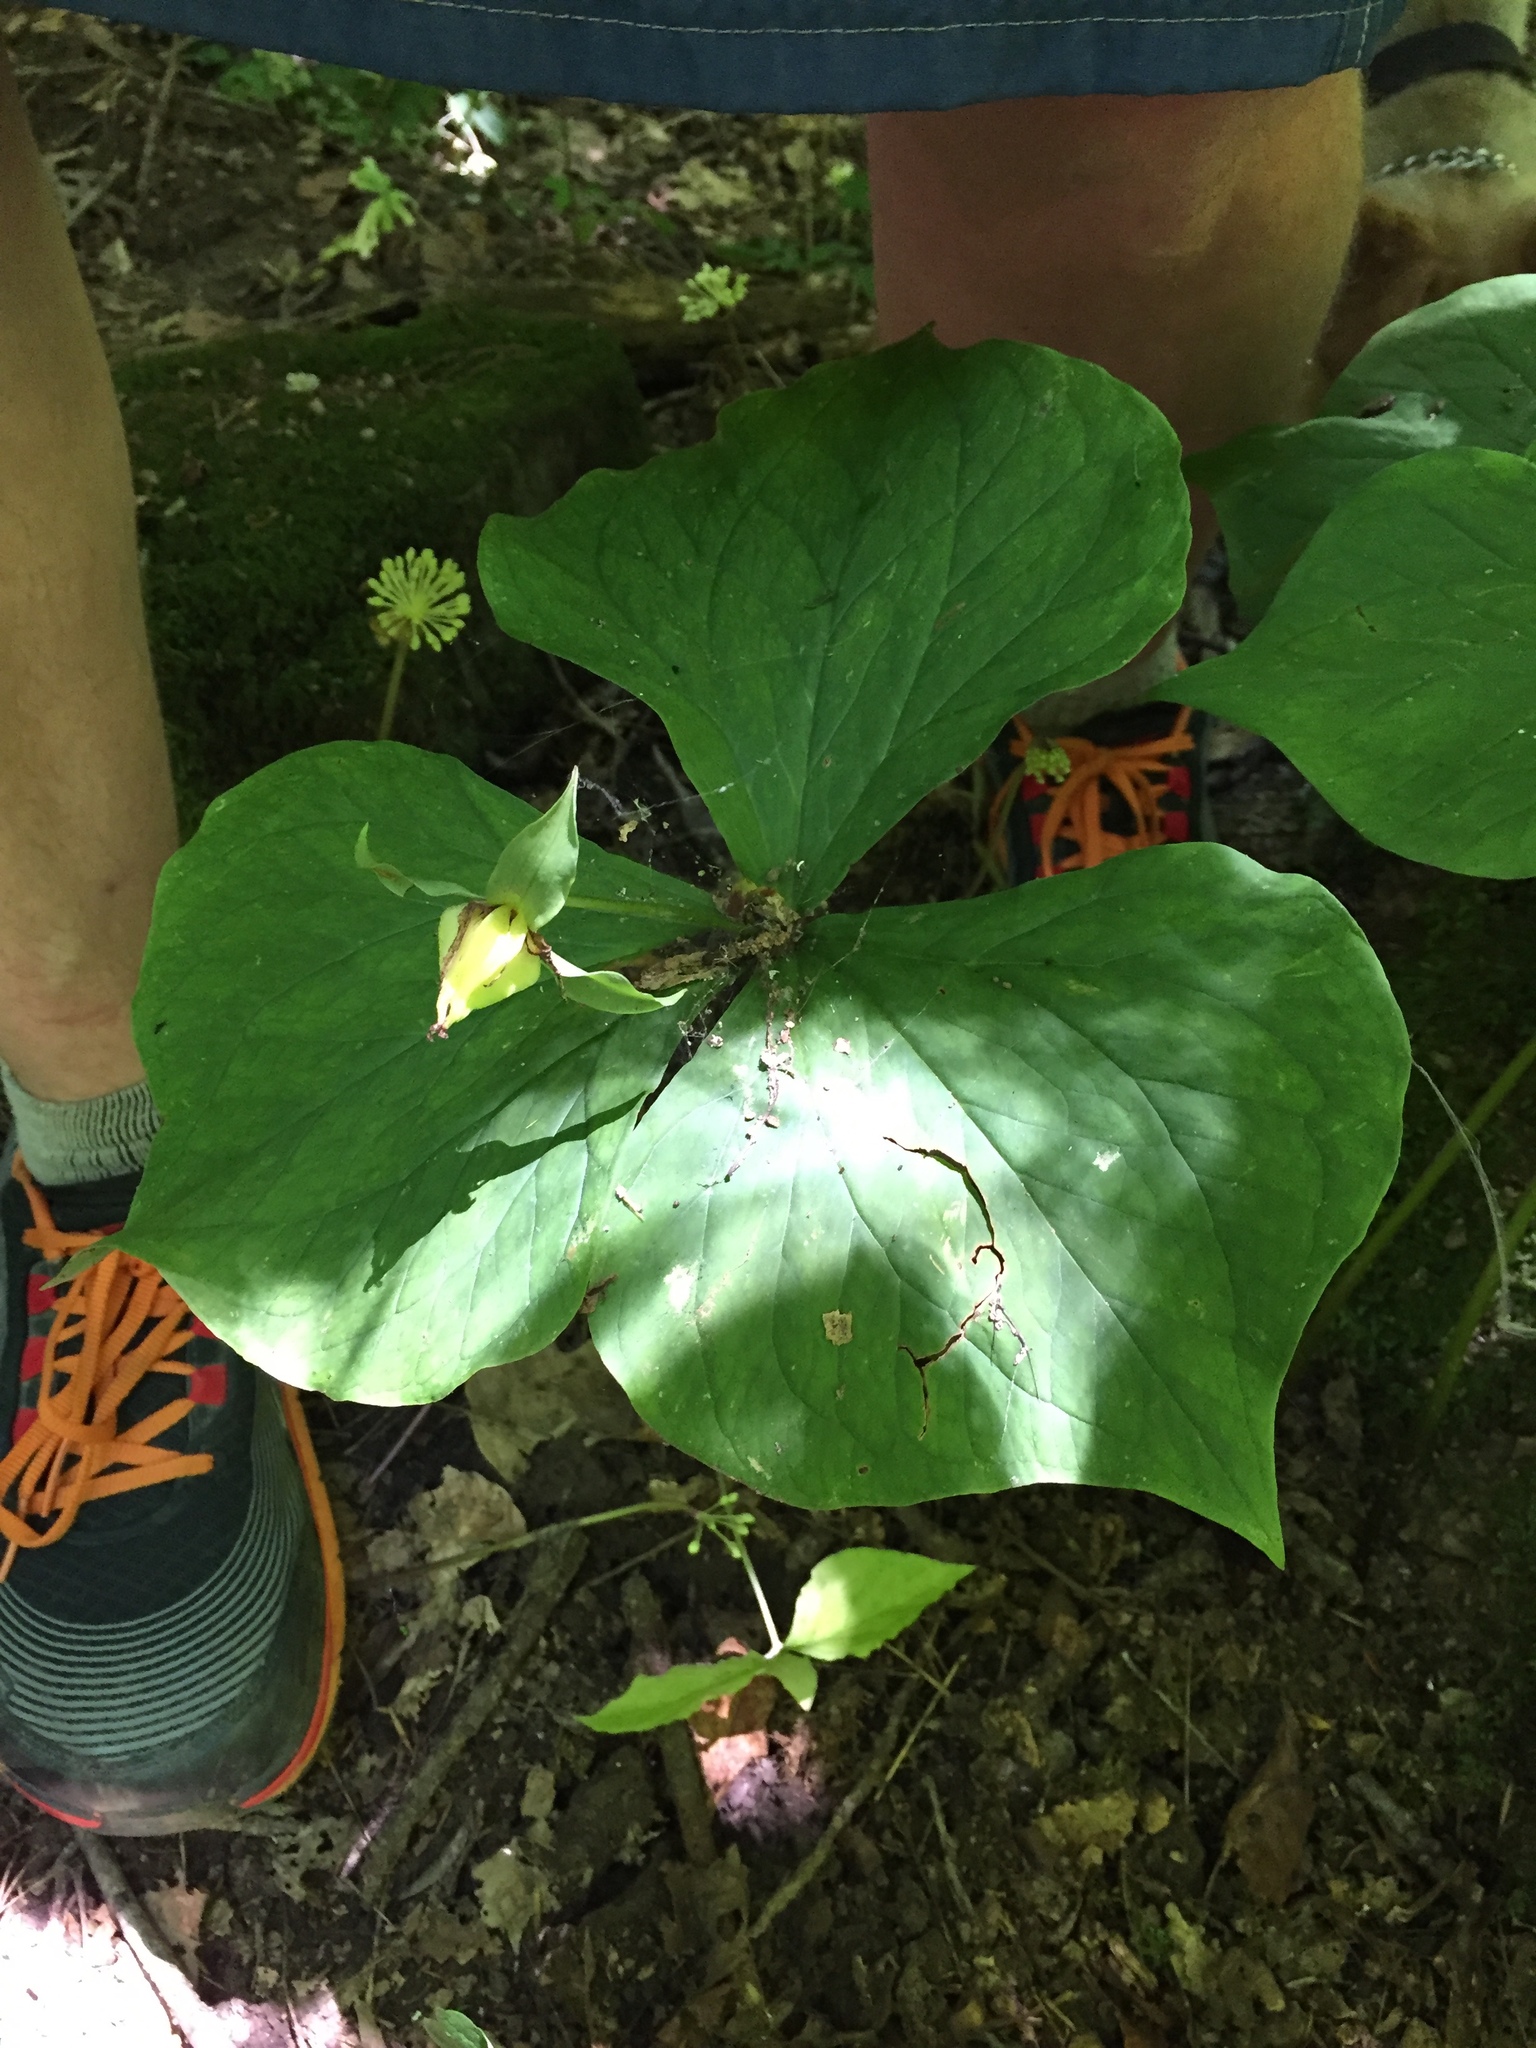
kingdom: Plantae
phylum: Tracheophyta
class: Liliopsida
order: Liliales
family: Melanthiaceae
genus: Trillium
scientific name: Trillium flexipes
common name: Drooping trillium
